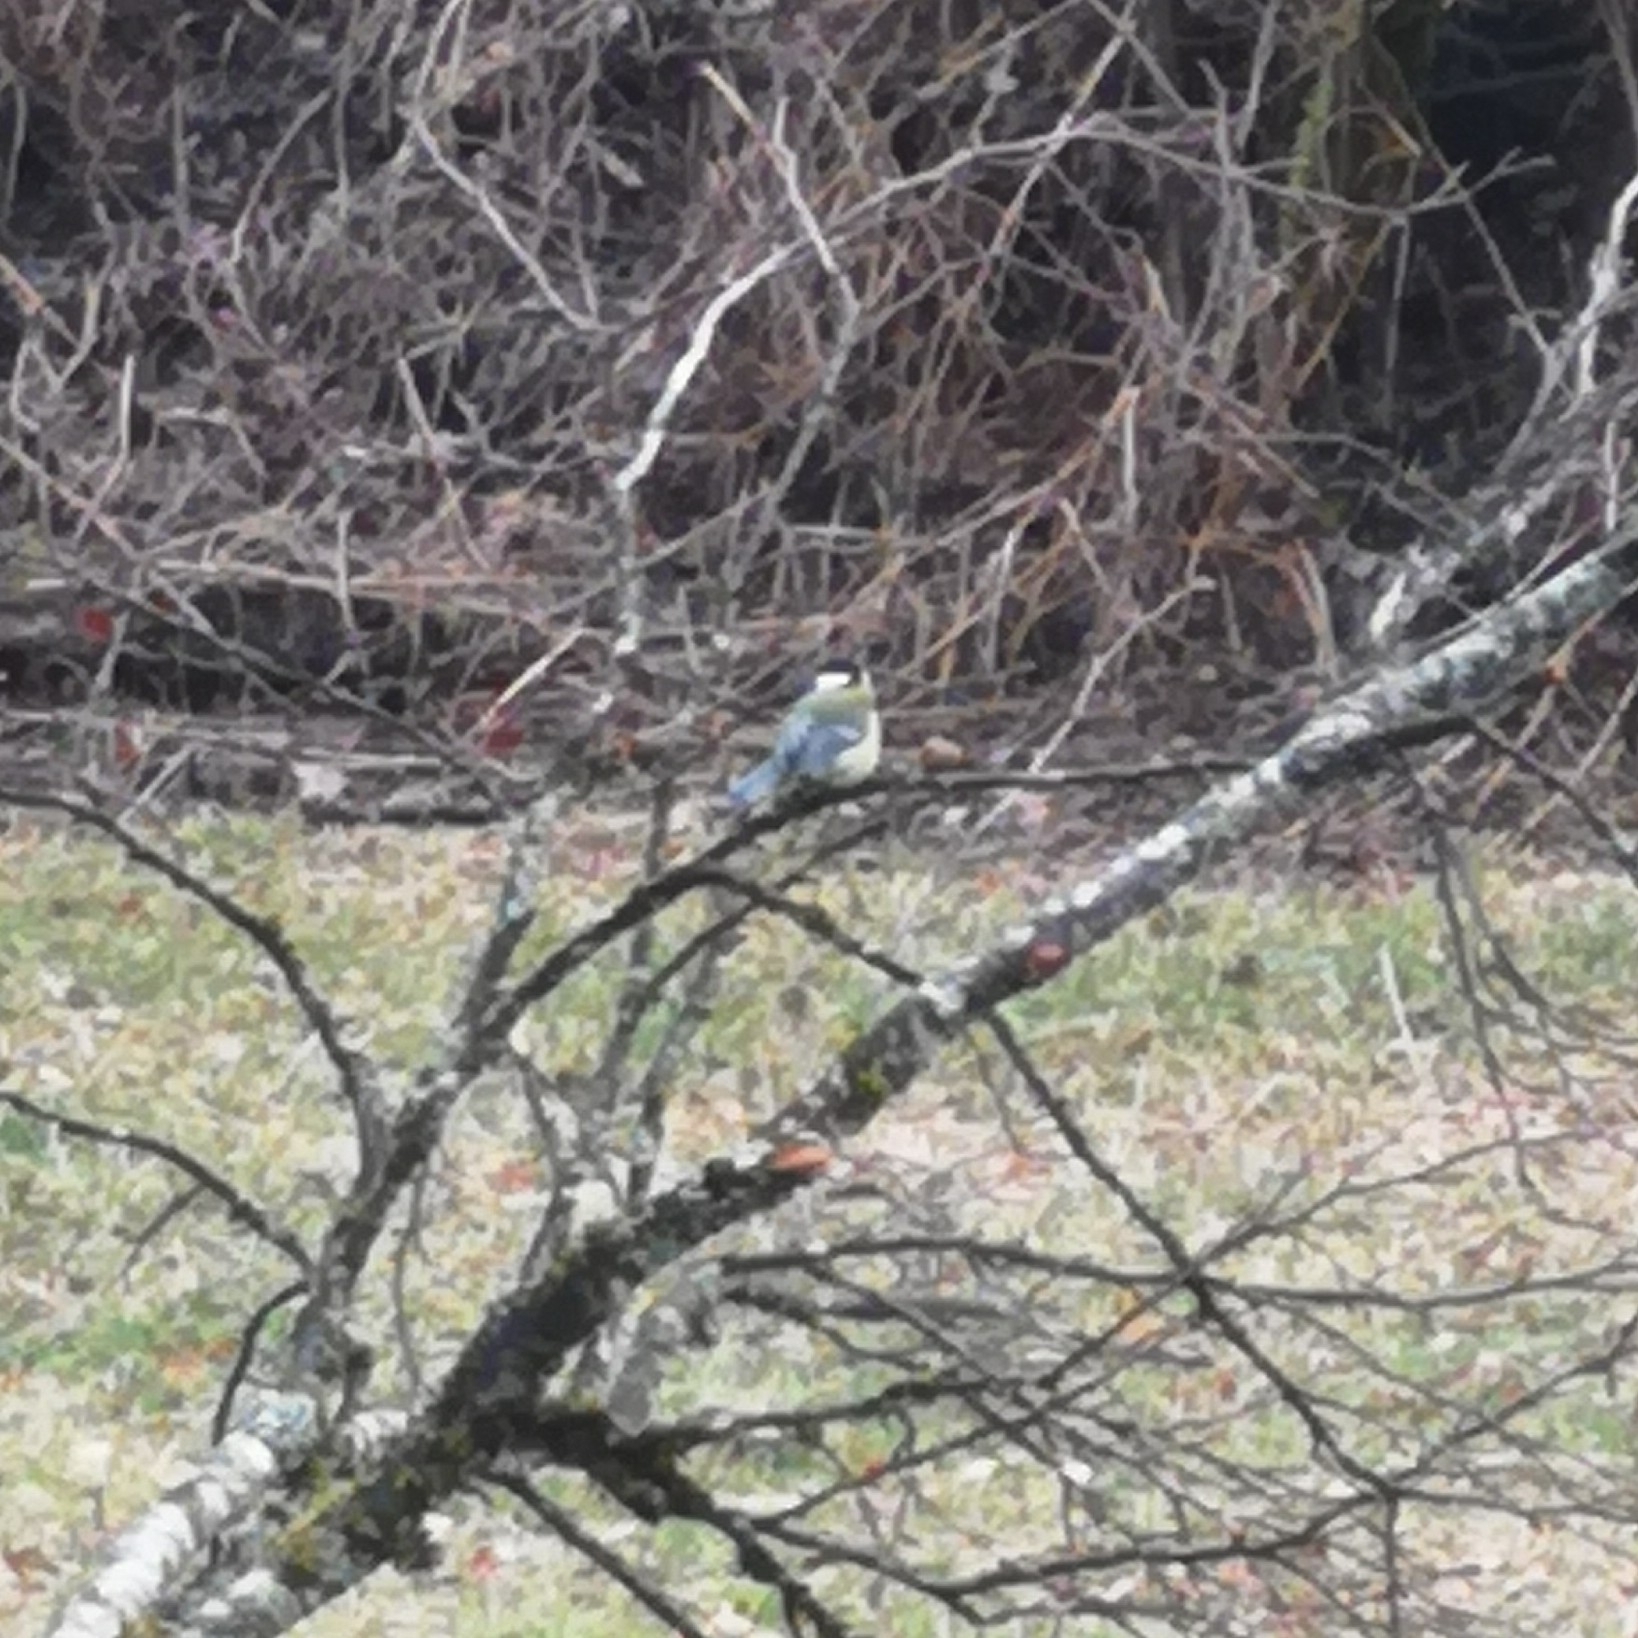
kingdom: Animalia
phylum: Chordata
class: Aves
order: Passeriformes
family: Paridae
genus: Parus
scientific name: Parus major
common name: Great tit
